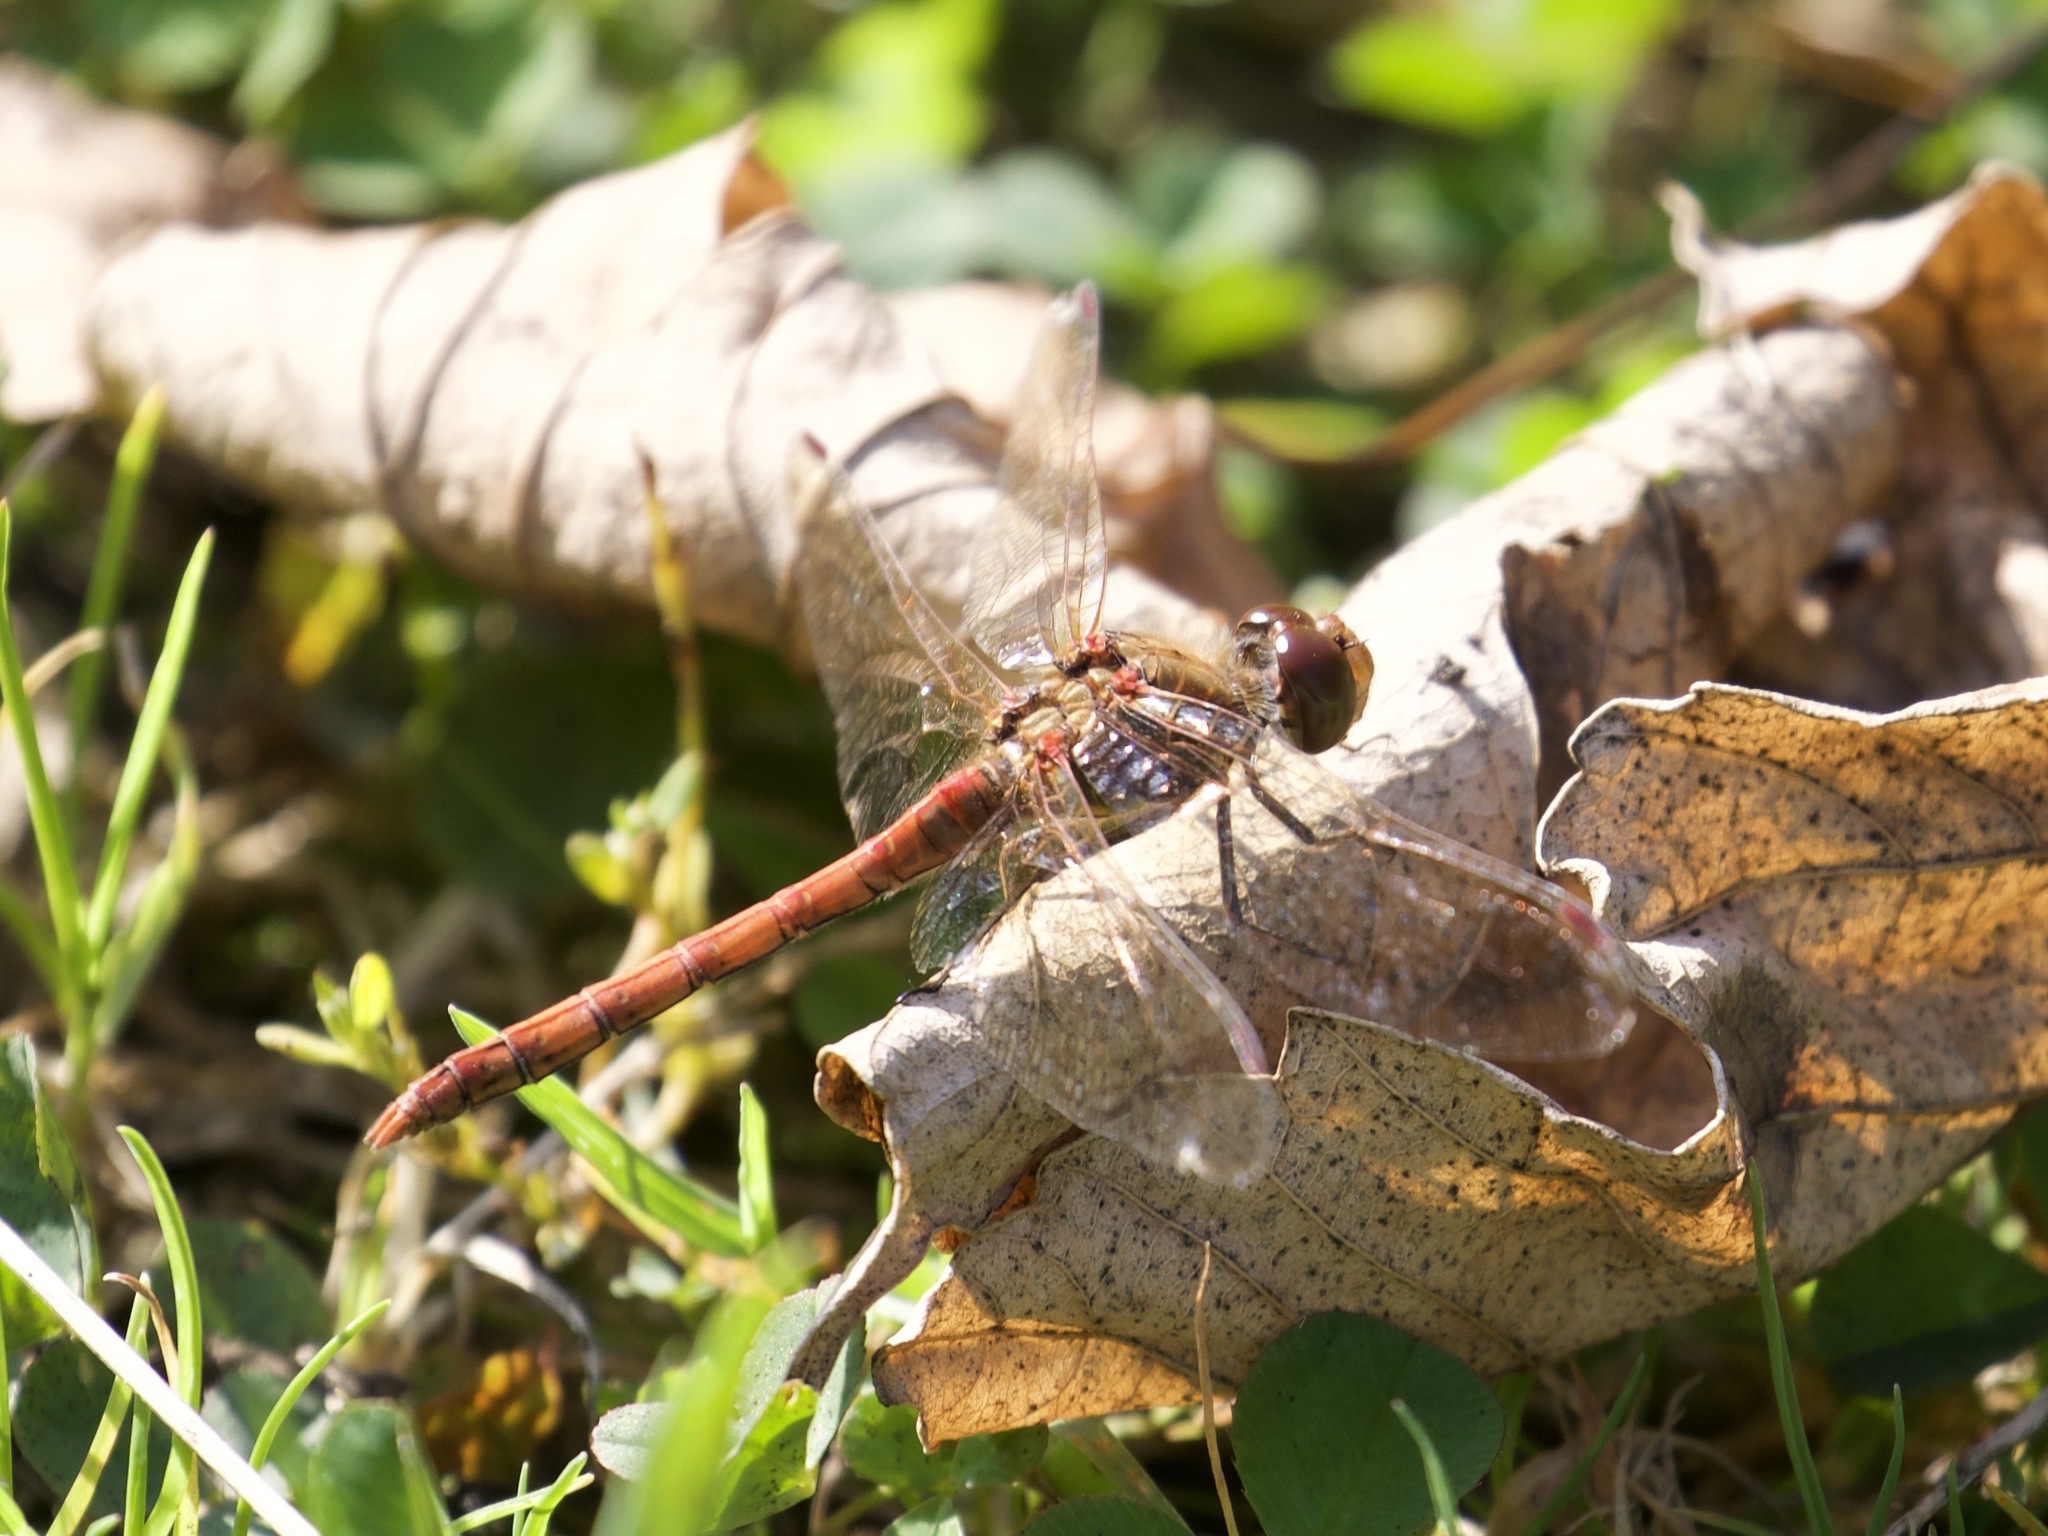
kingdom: Animalia
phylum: Arthropoda
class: Insecta
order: Odonata
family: Libellulidae
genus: Sympetrum
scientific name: Sympetrum striolatum
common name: Common darter
